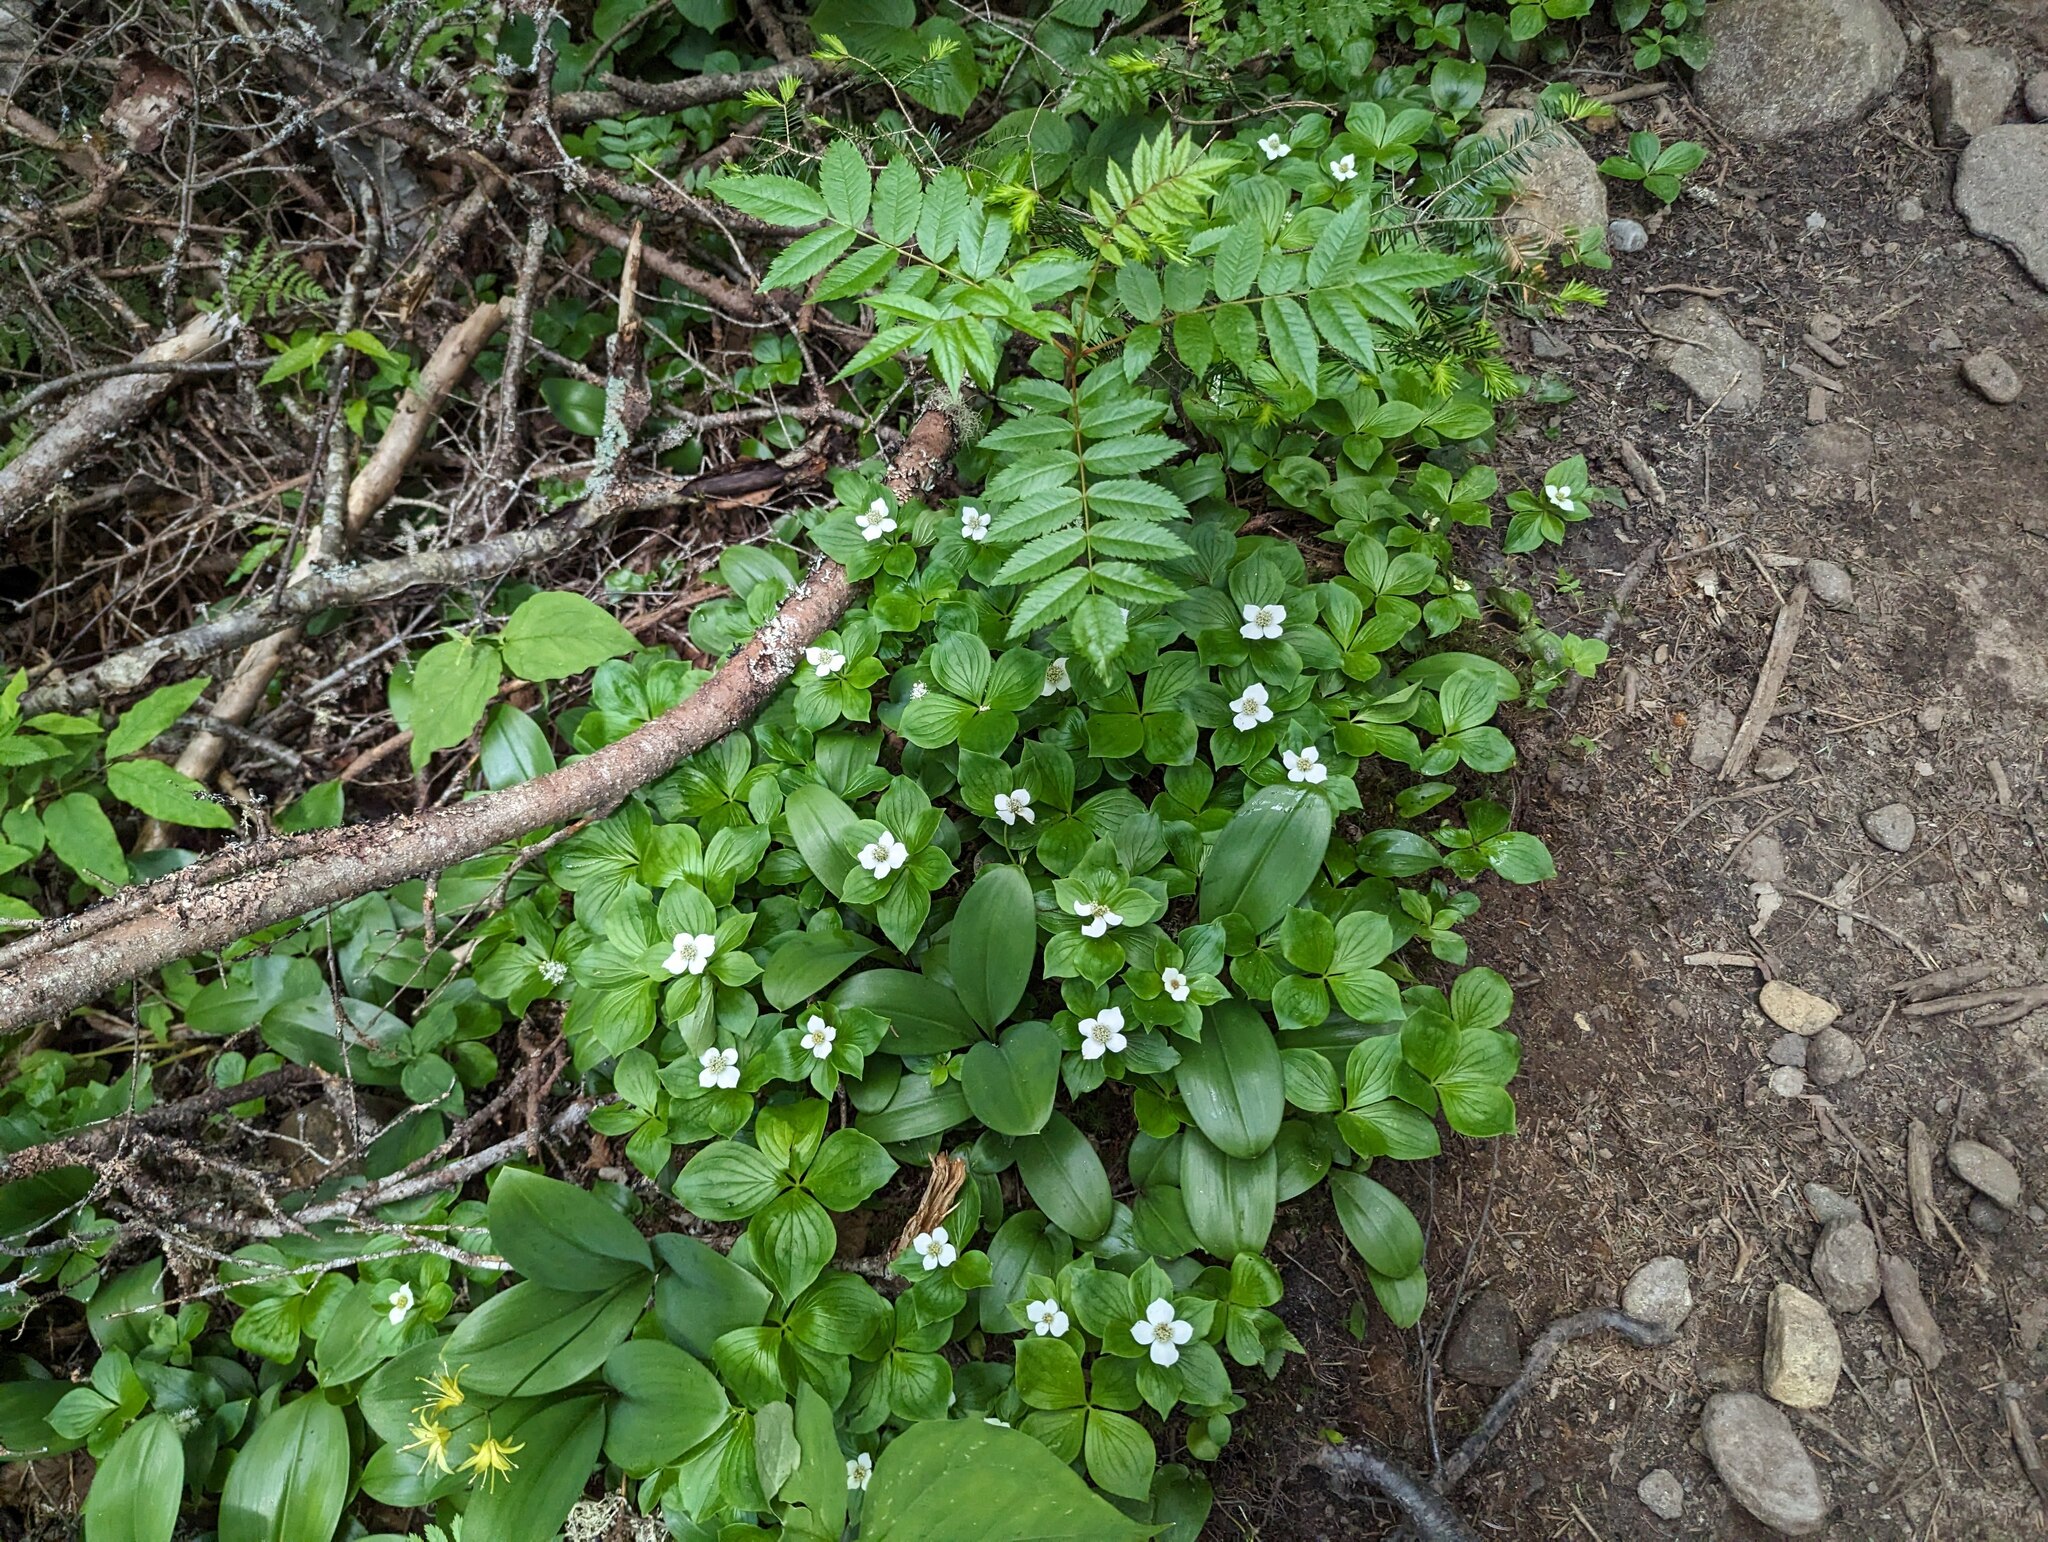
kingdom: Plantae
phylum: Tracheophyta
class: Magnoliopsida
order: Cornales
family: Cornaceae
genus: Cornus
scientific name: Cornus canadensis
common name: Creeping dogwood
